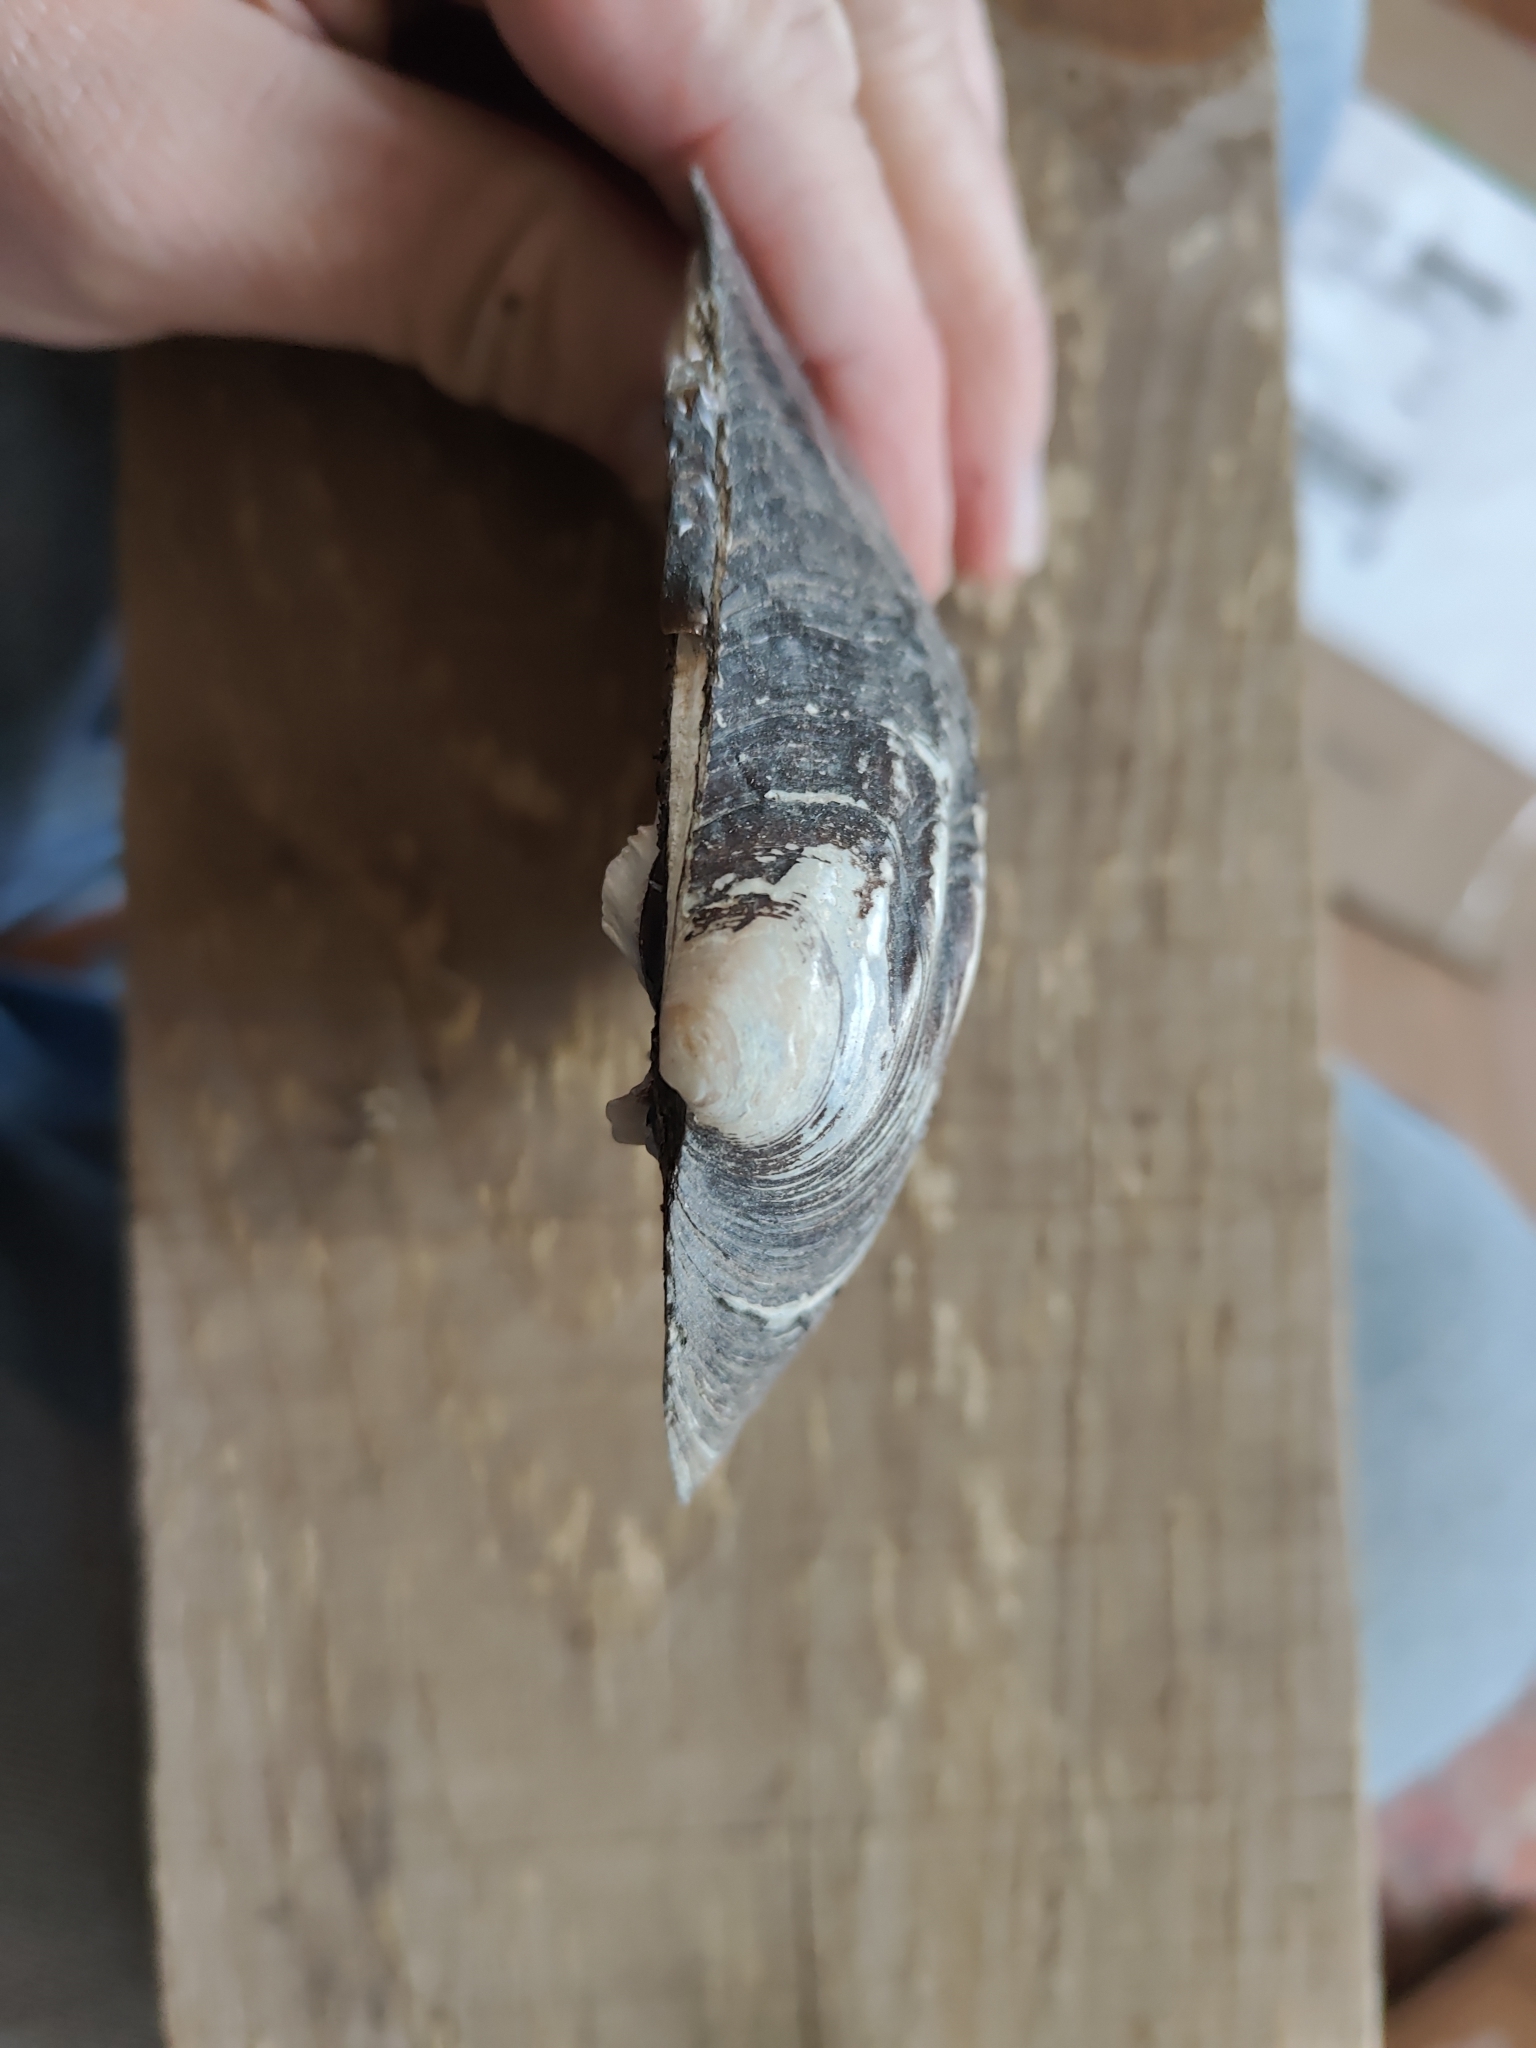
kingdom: Animalia
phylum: Mollusca
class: Bivalvia
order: Unionida
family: Unionidae
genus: Amblema
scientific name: Amblema plicata
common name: Threeridge
